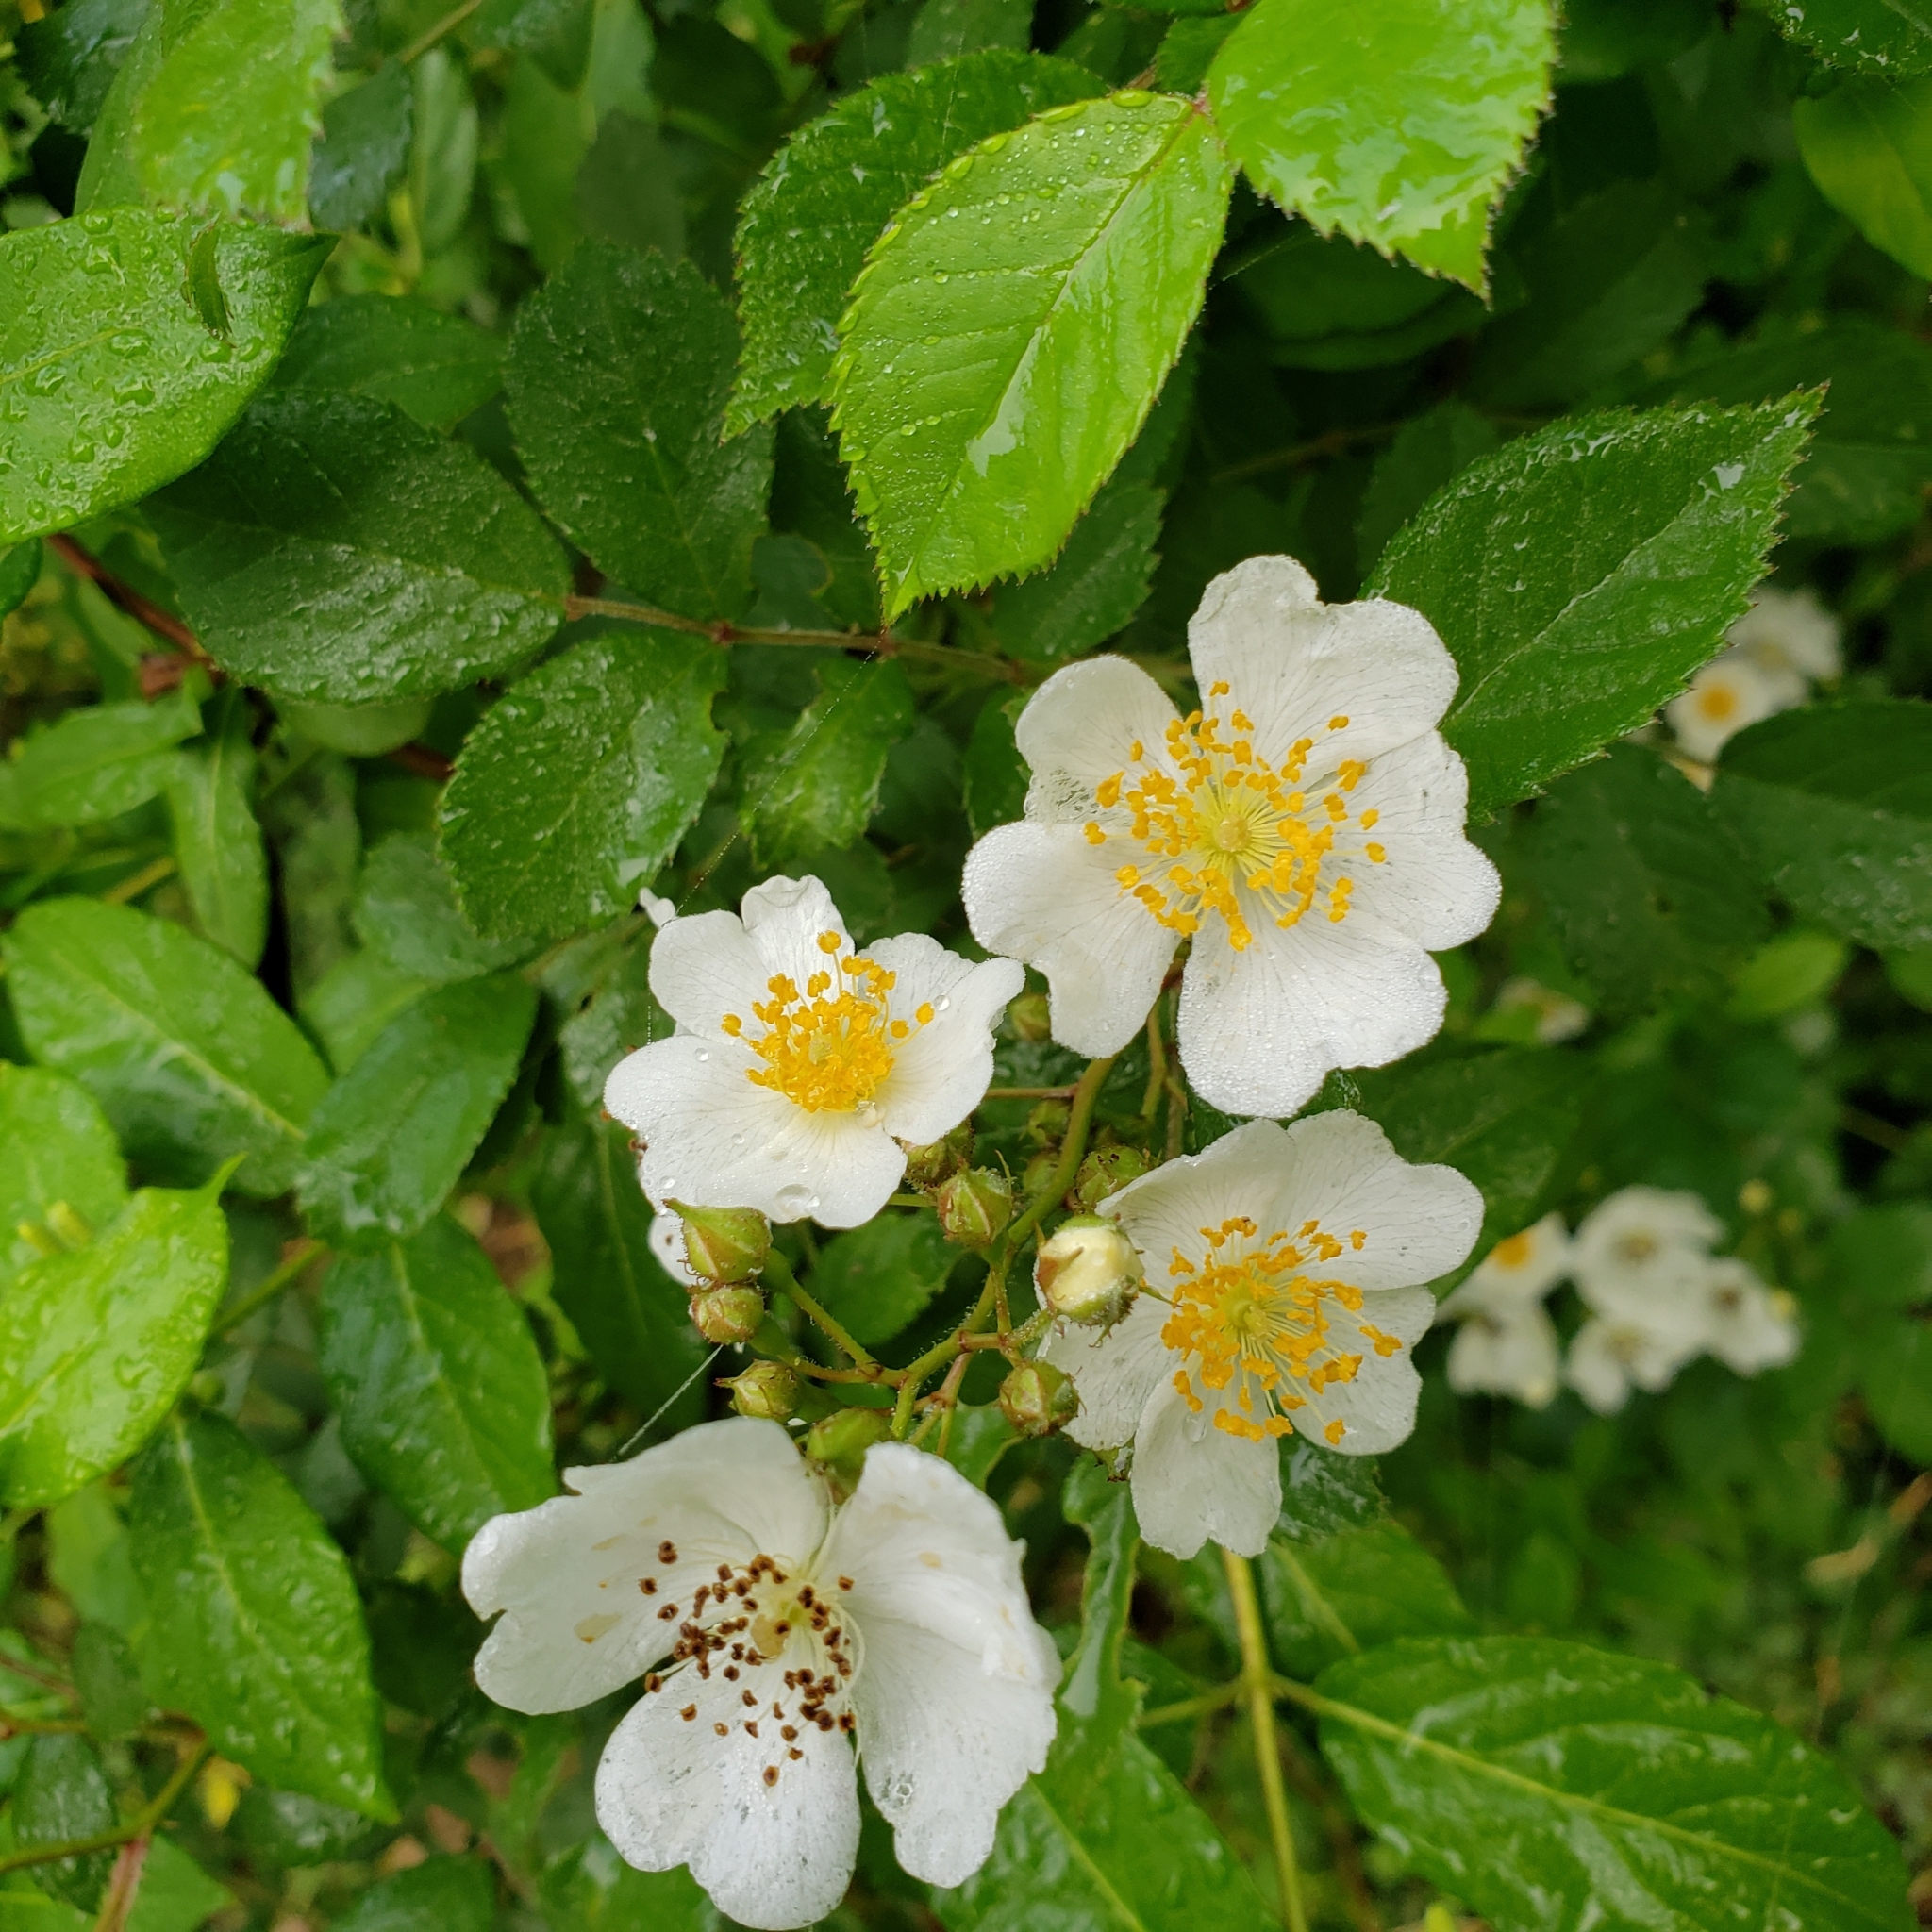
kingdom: Plantae
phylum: Tracheophyta
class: Magnoliopsida
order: Rosales
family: Rosaceae
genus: Rosa
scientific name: Rosa multiflora
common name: Multiflora rose
